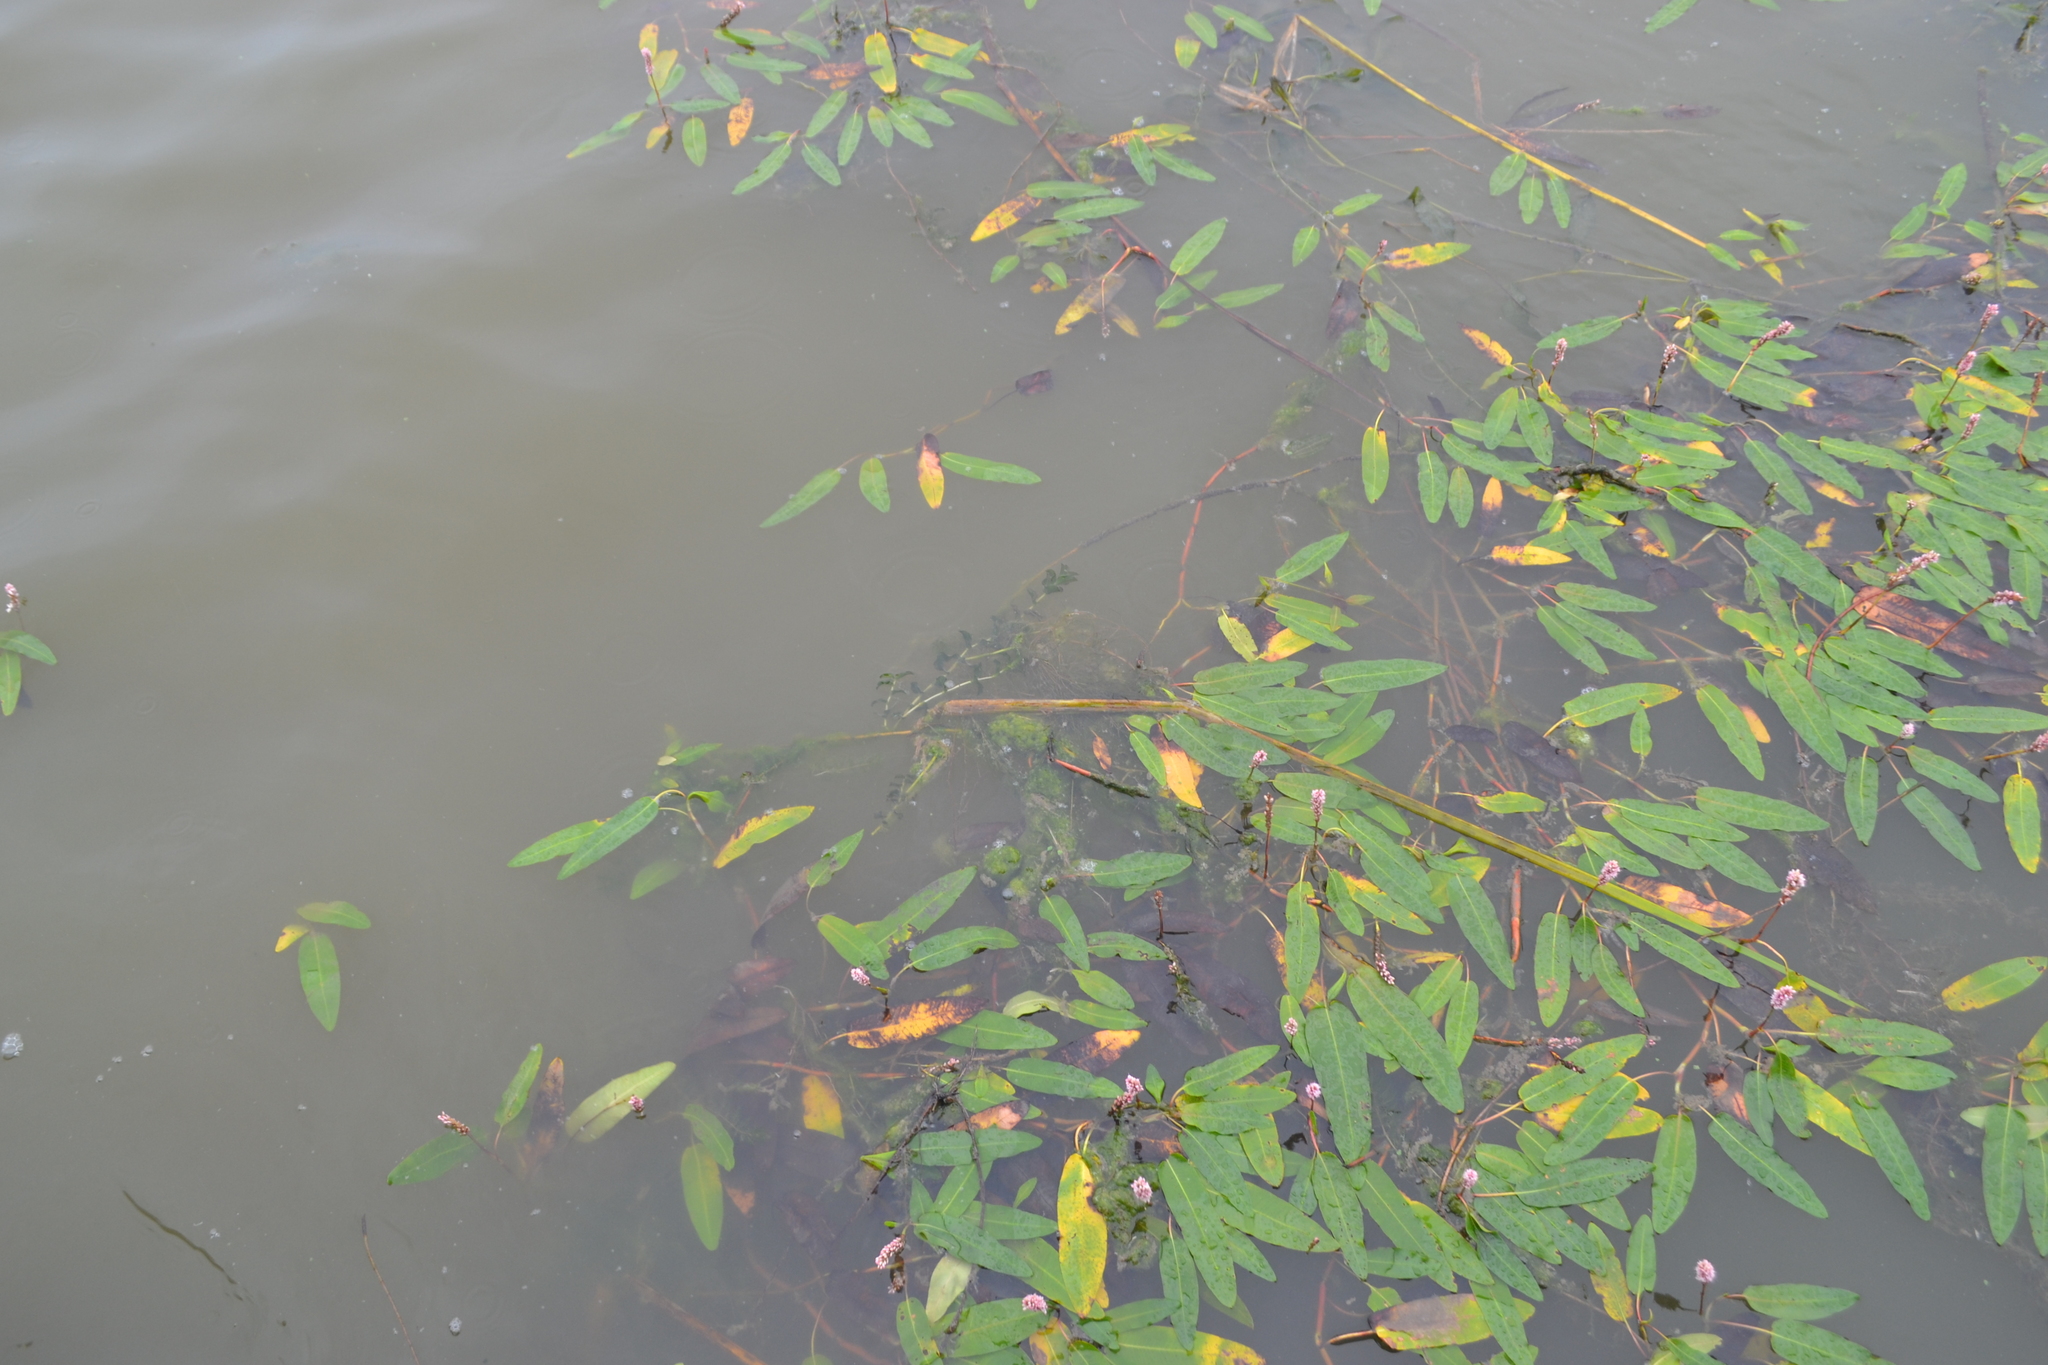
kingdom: Plantae
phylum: Tracheophyta
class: Magnoliopsida
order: Caryophyllales
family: Polygonaceae
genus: Persicaria
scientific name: Persicaria amphibia
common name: Amphibious bistort
